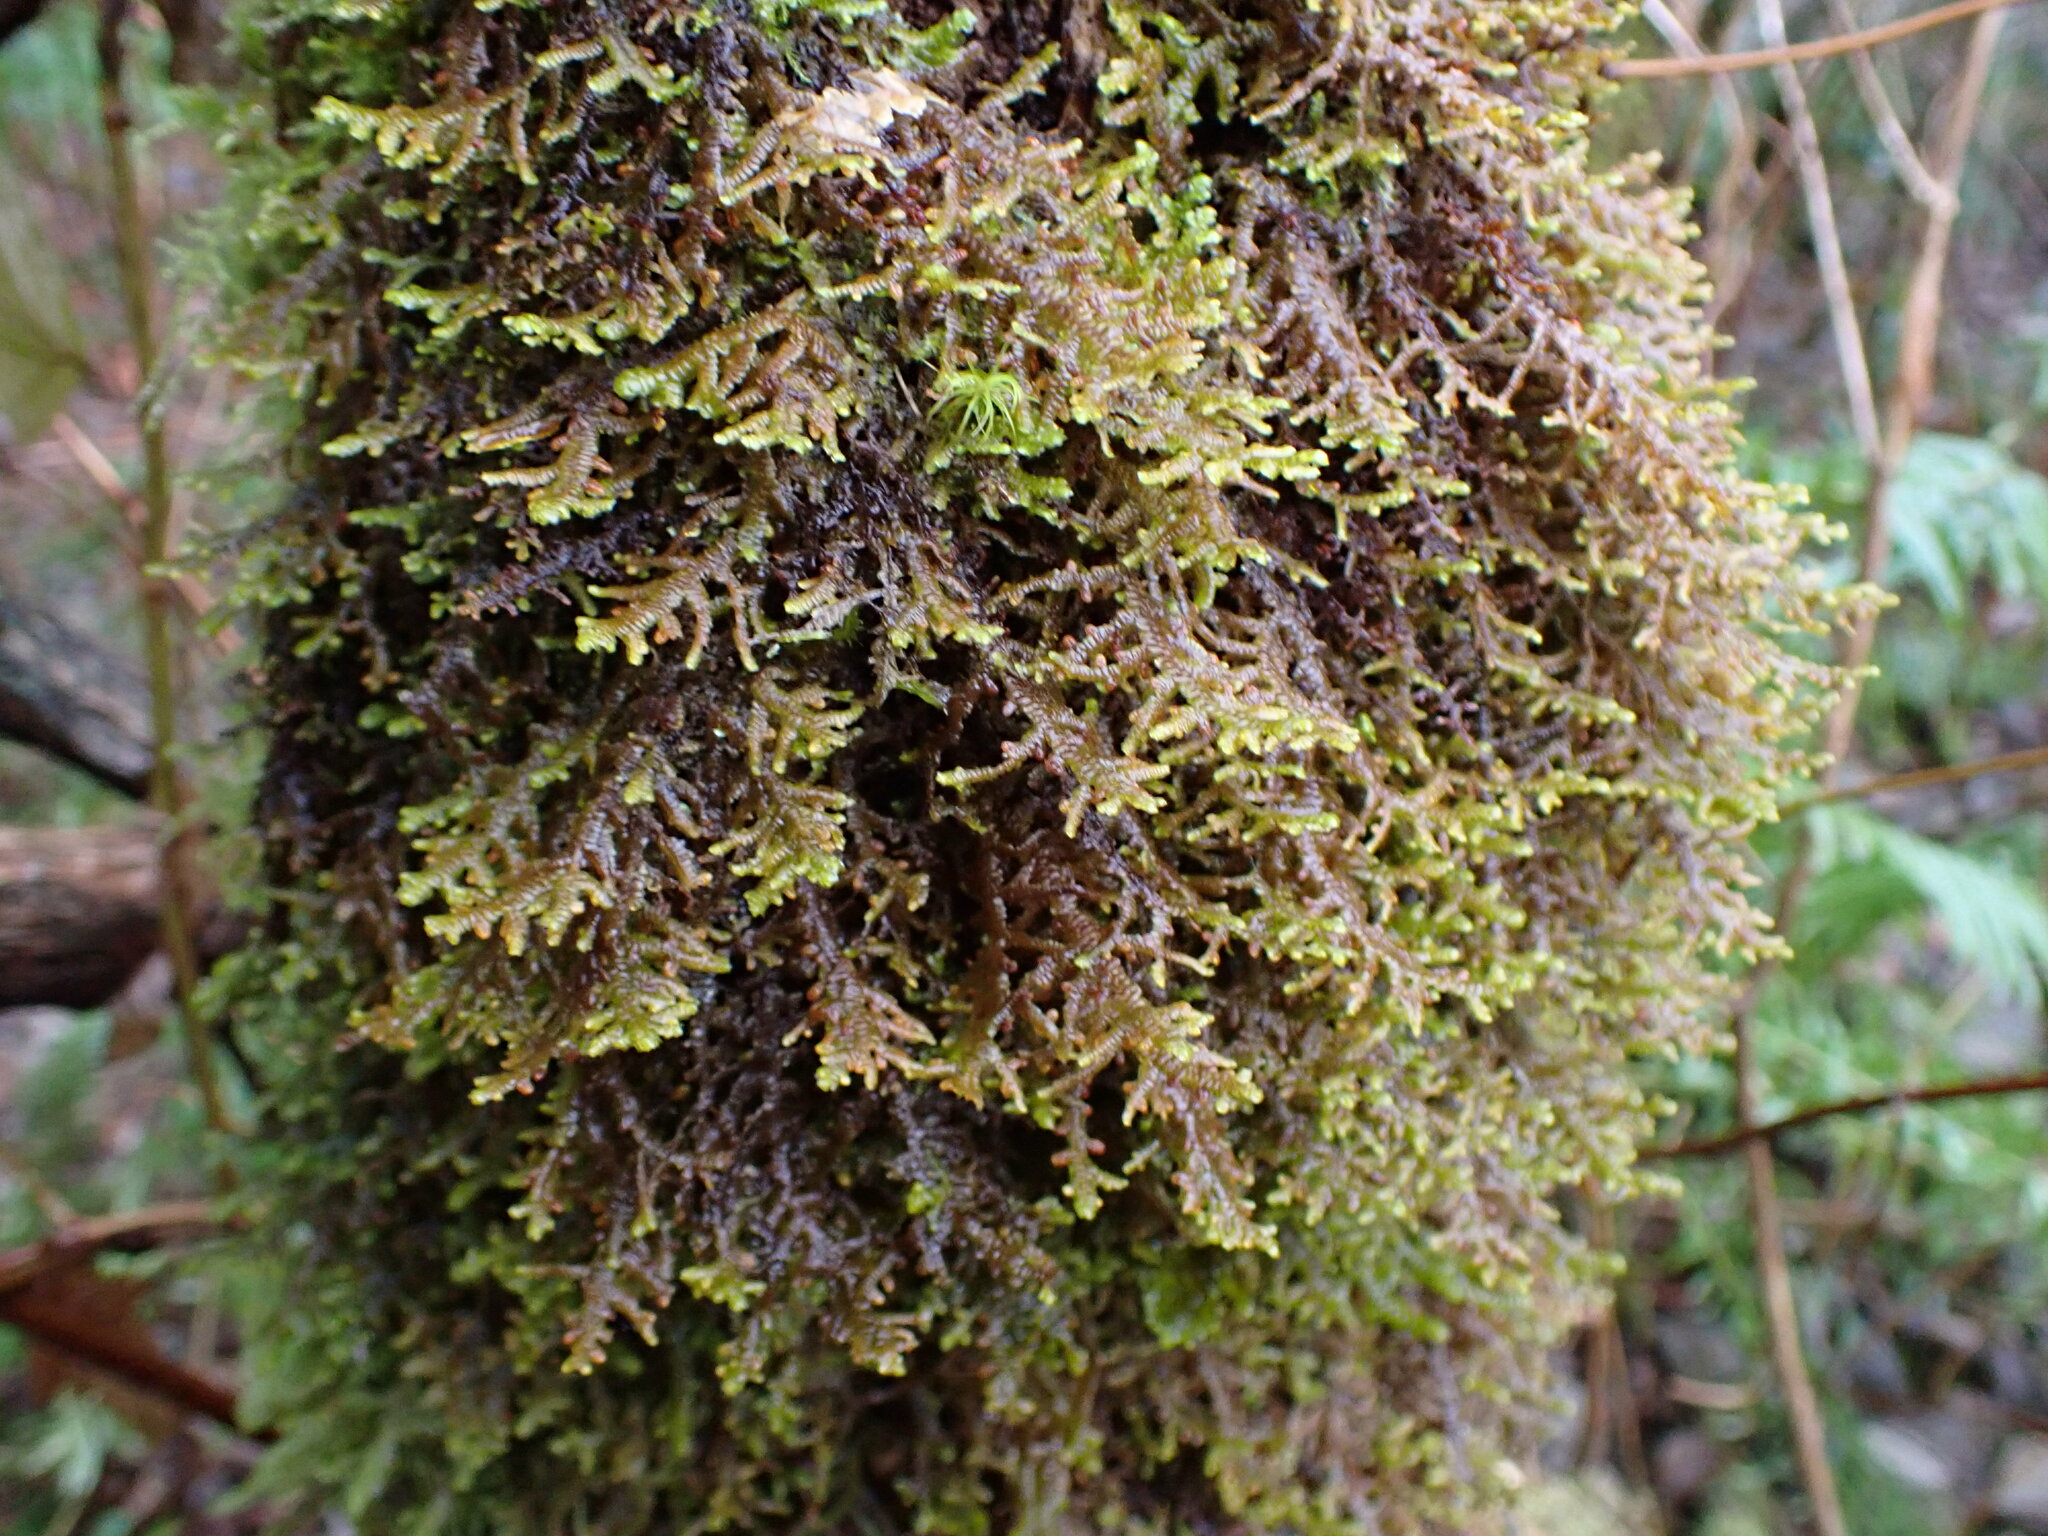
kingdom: Plantae
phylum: Marchantiophyta
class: Jungermanniopsida
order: Porellales
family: Porellaceae
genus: Porella
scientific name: Porella navicularis
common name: Tree ruffle liverwort
